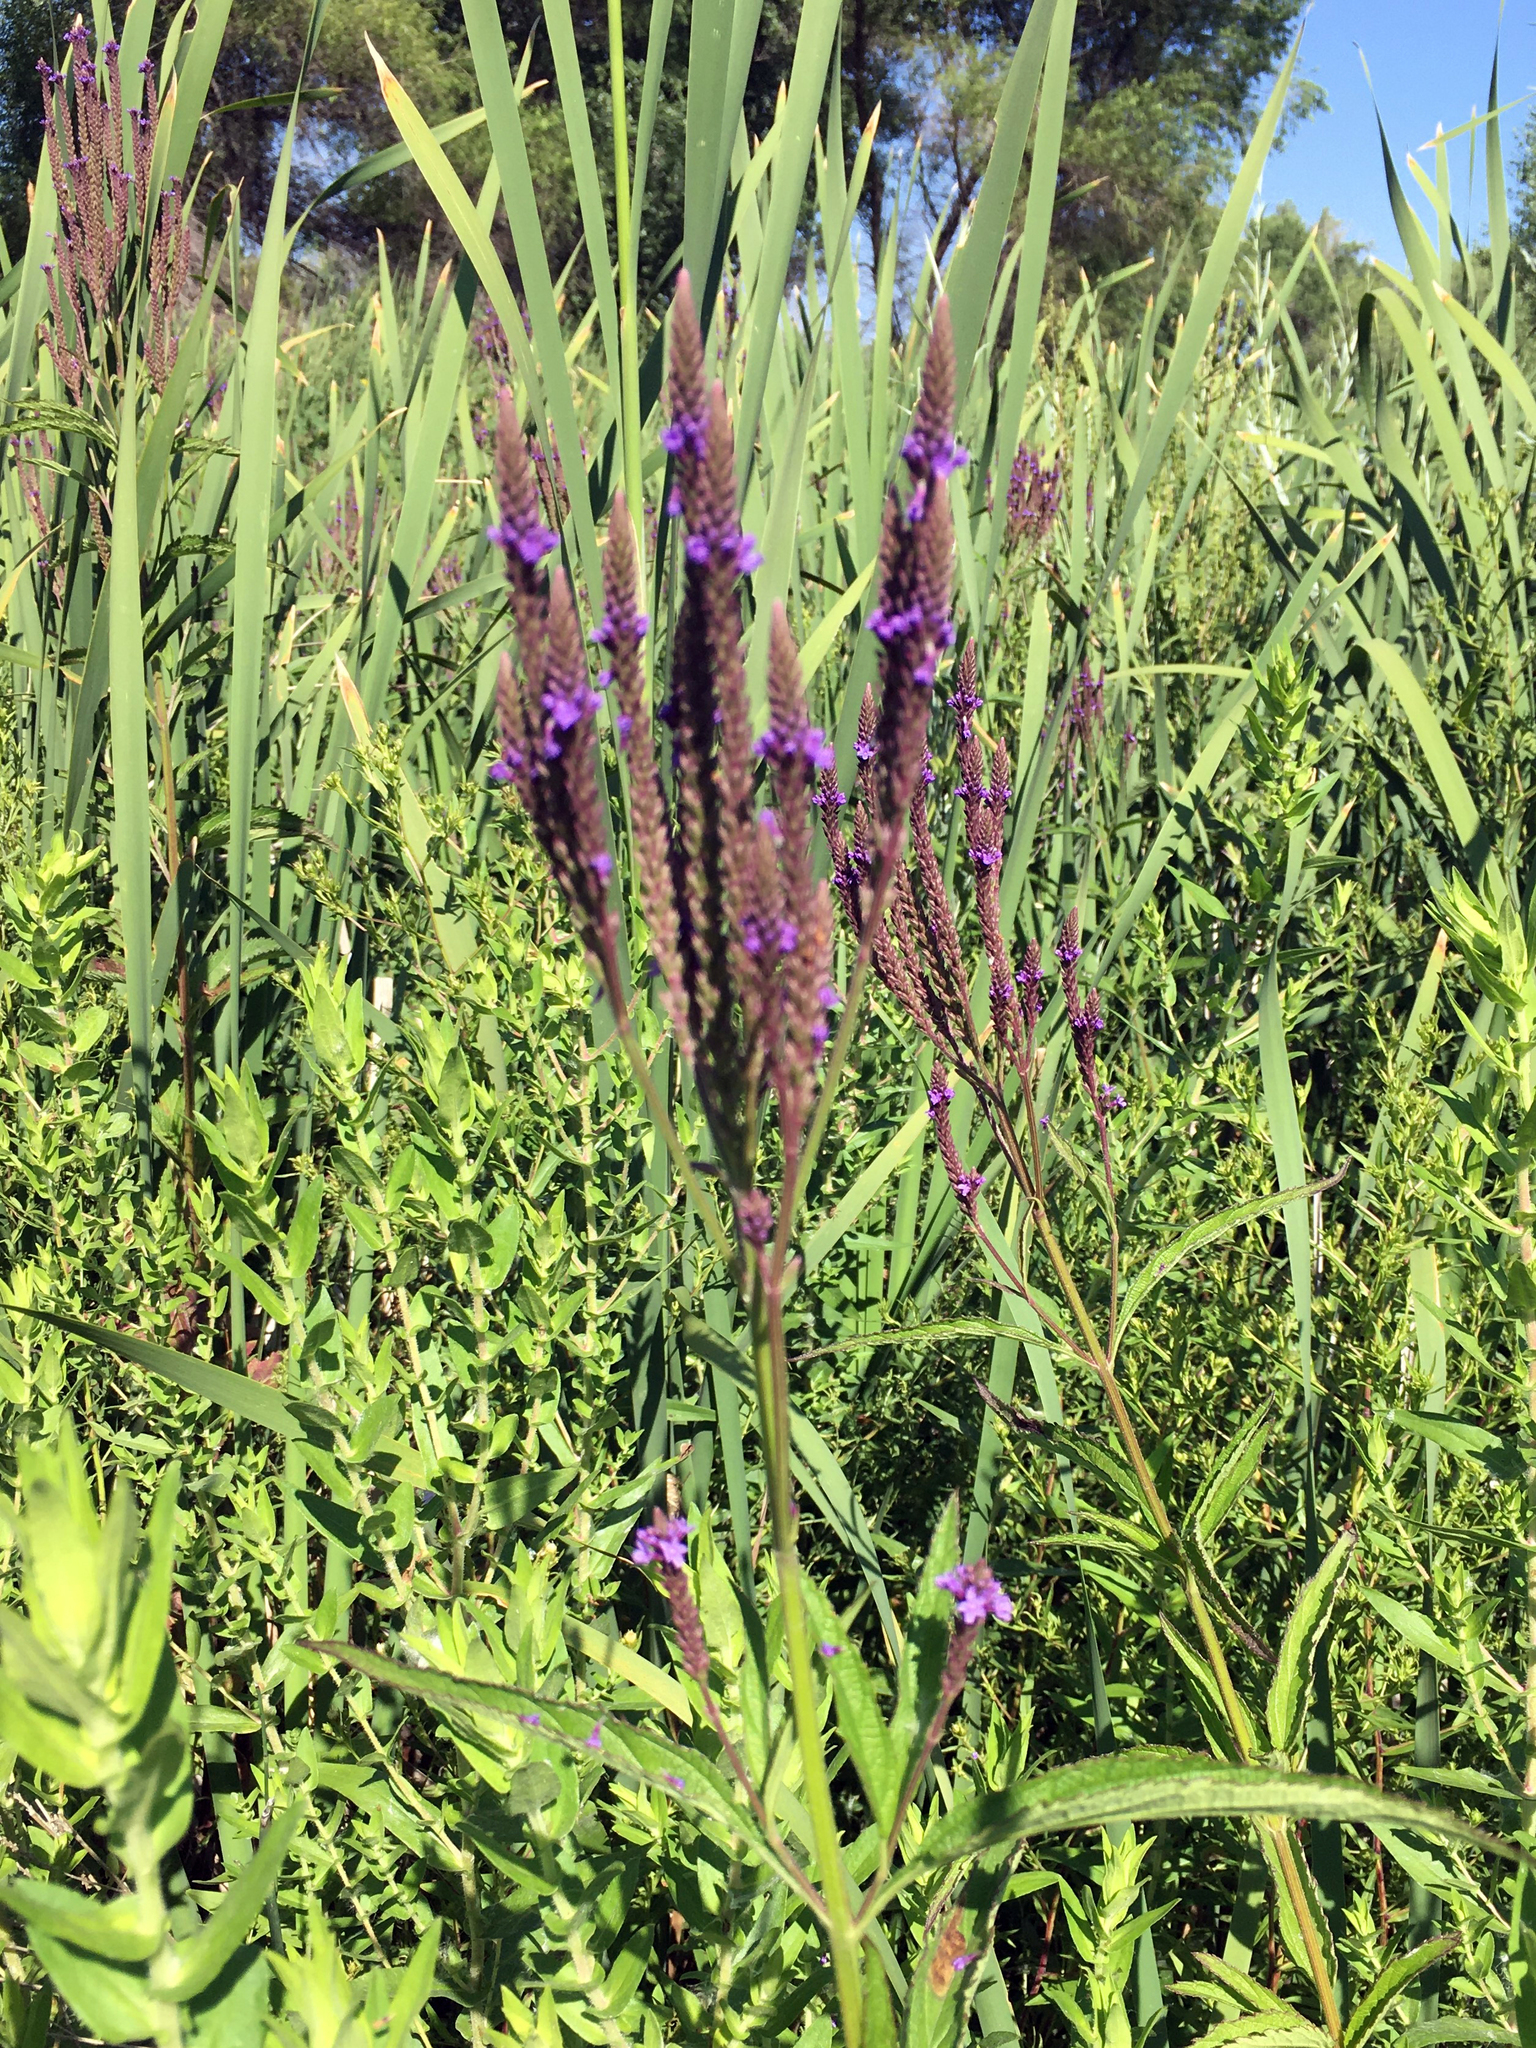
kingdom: Plantae
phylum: Tracheophyta
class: Magnoliopsida
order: Lamiales
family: Verbenaceae
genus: Verbena
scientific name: Verbena hastata
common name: American blue vervain
